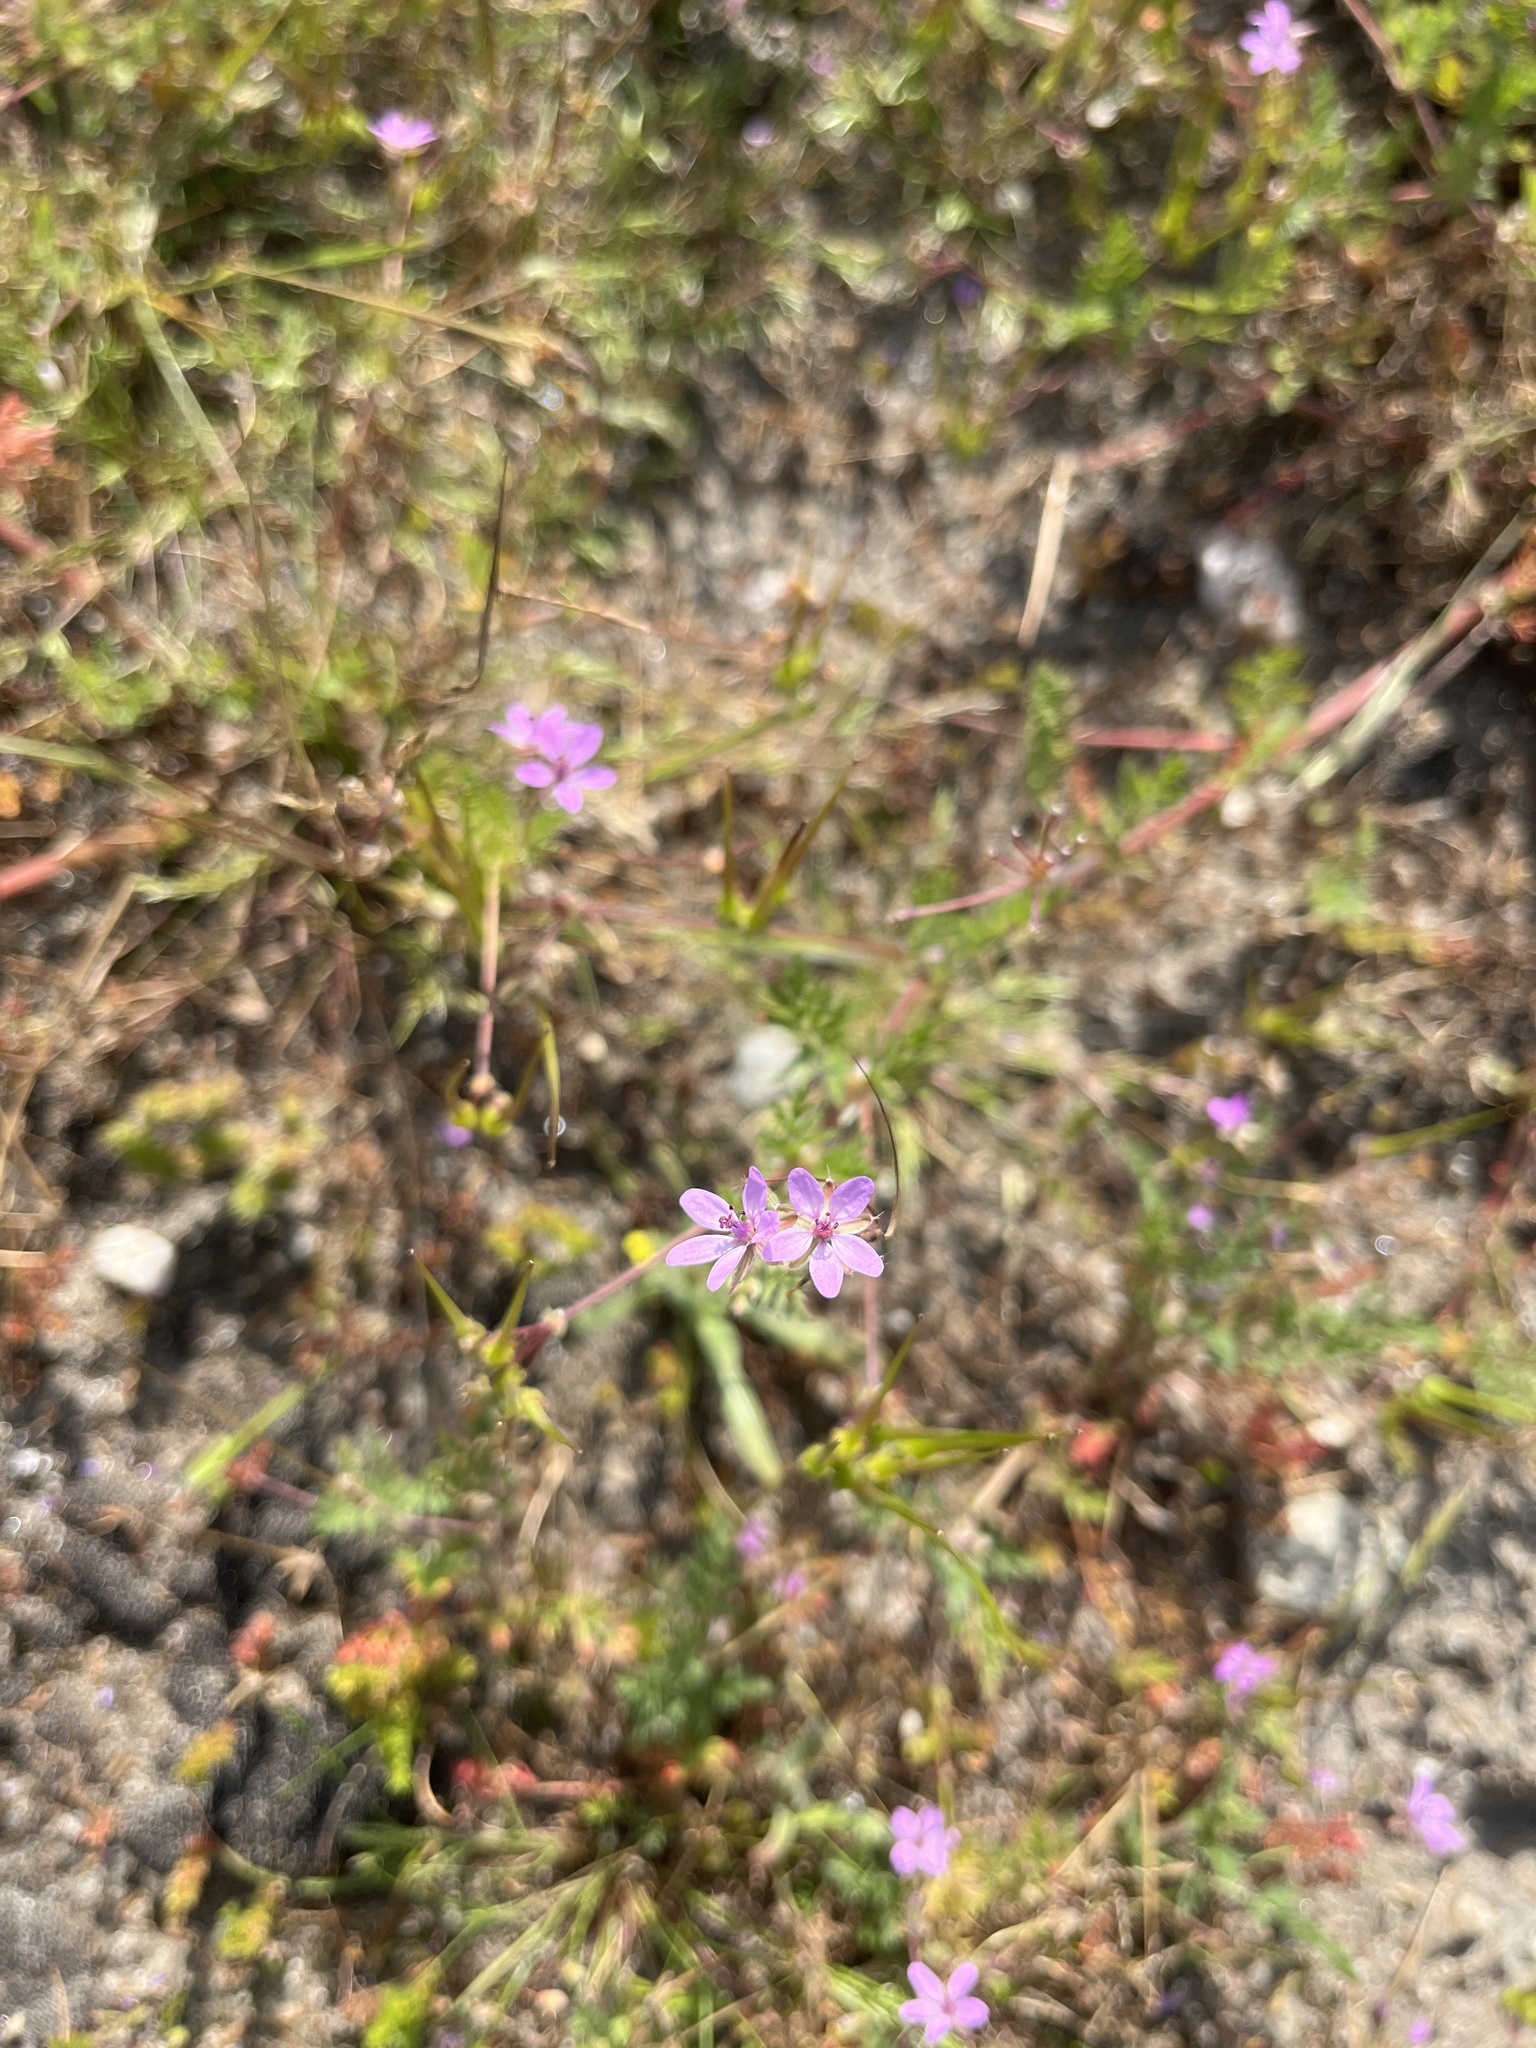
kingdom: Plantae
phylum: Tracheophyta
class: Magnoliopsida
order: Geraniales
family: Geraniaceae
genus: Erodium
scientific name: Erodium cicutarium
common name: Common stork's-bill
